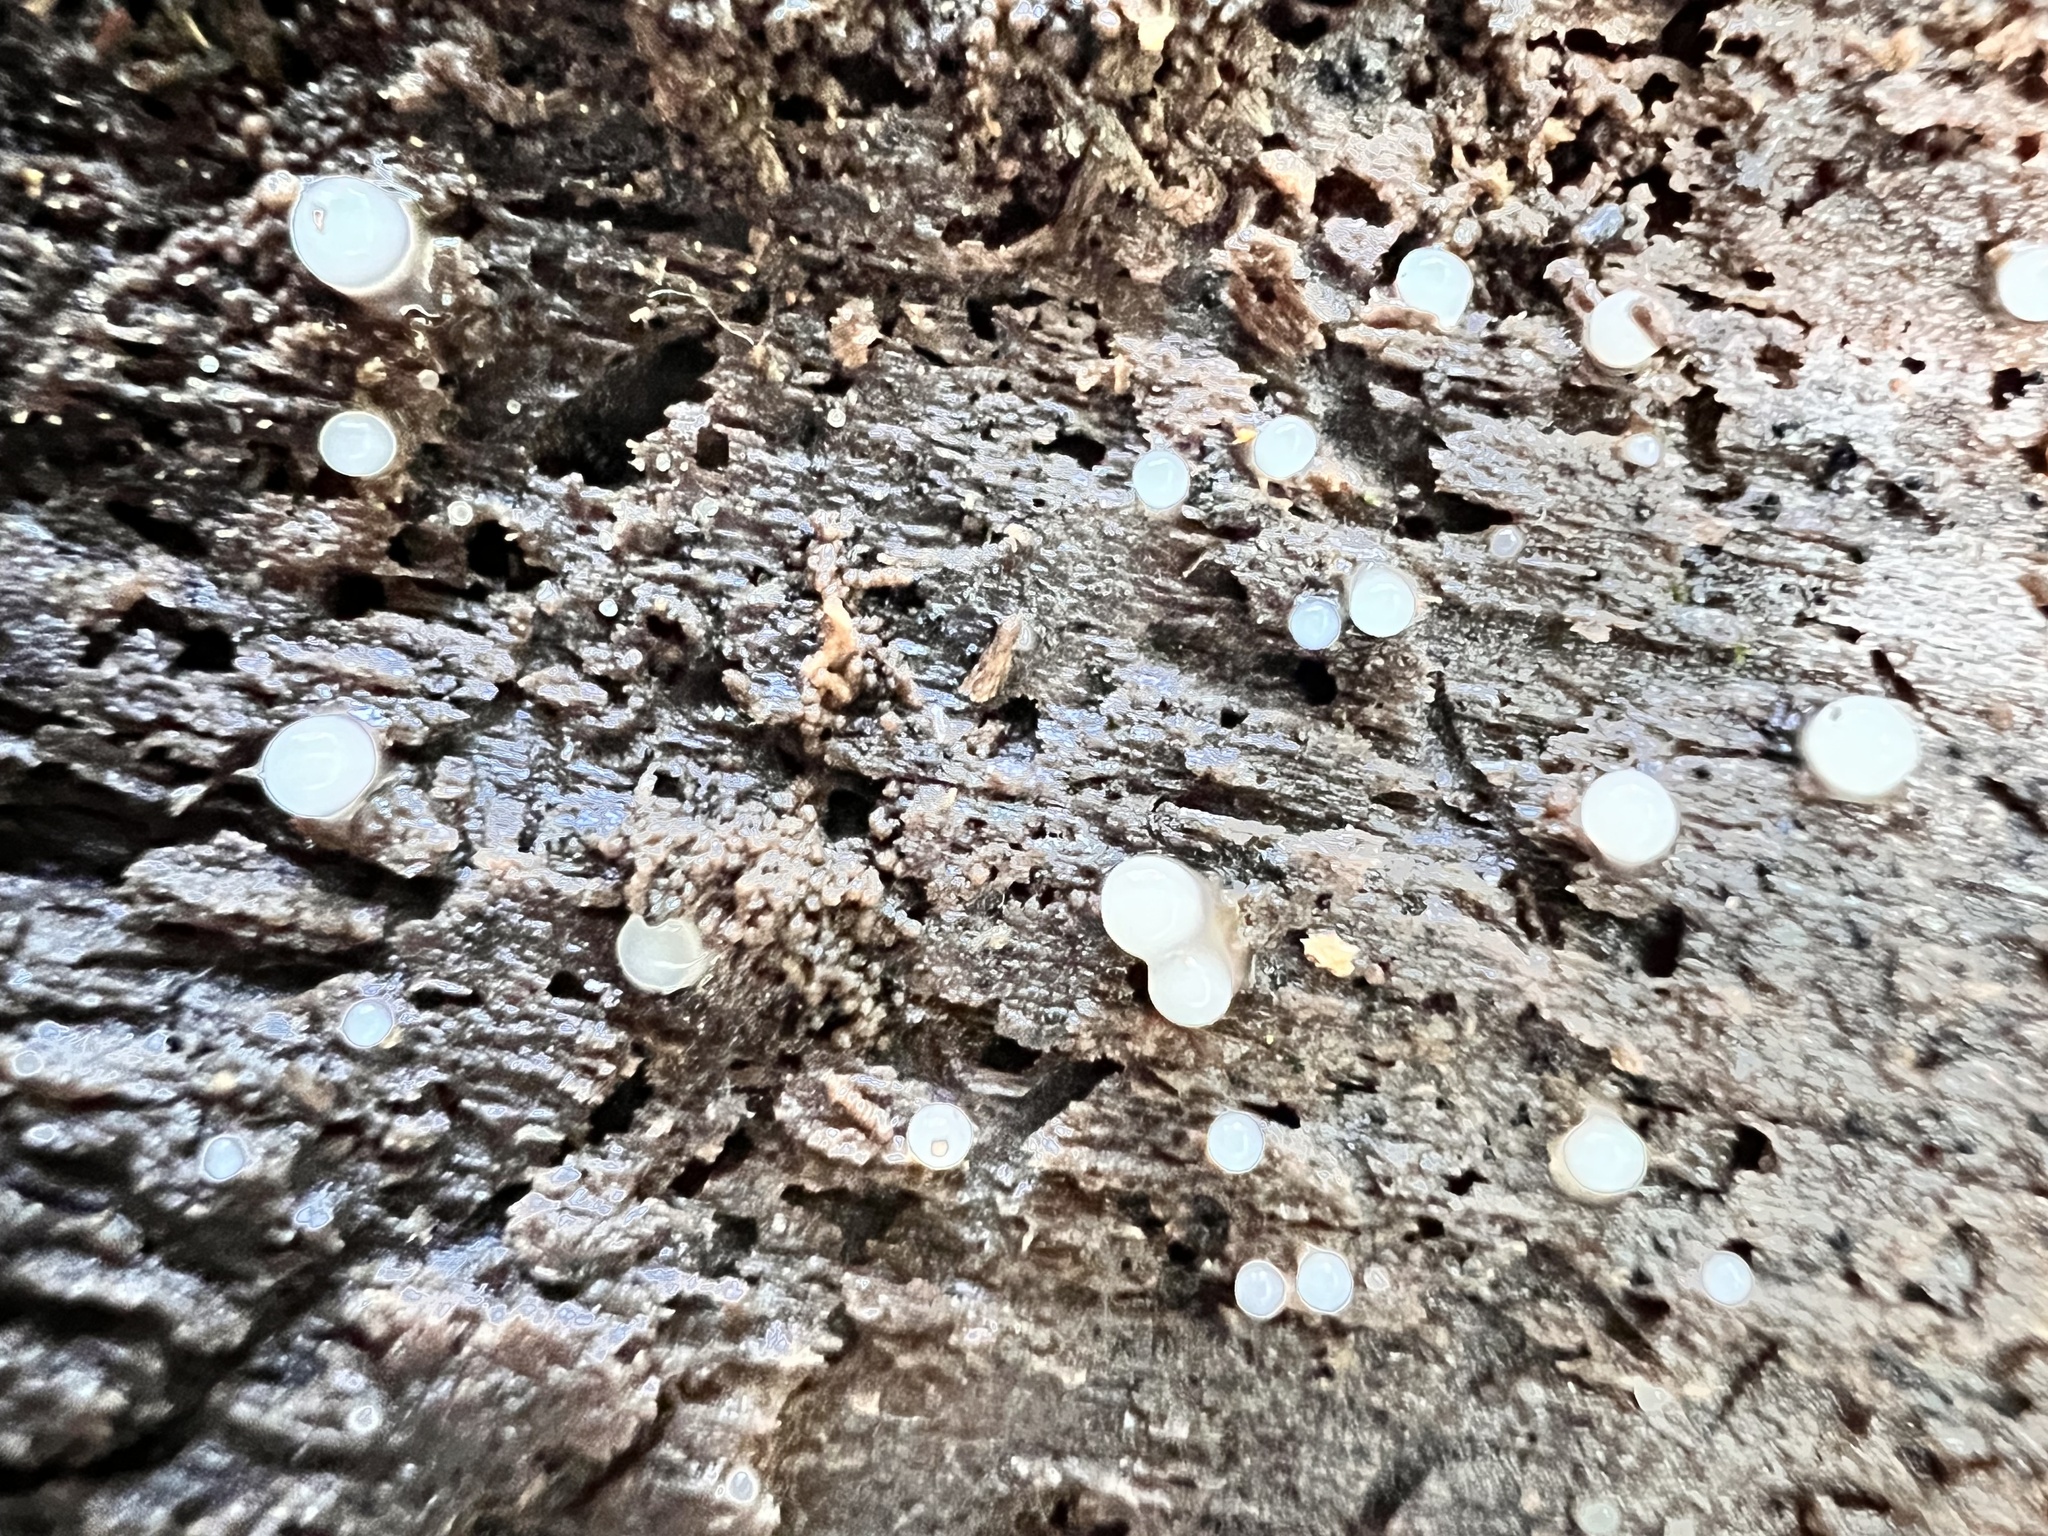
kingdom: Fungi
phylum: Basidiomycota
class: Atractiellomycetes
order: Atractiellales
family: Phleogenaceae
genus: Helicogloea
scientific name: Helicogloea compressa
